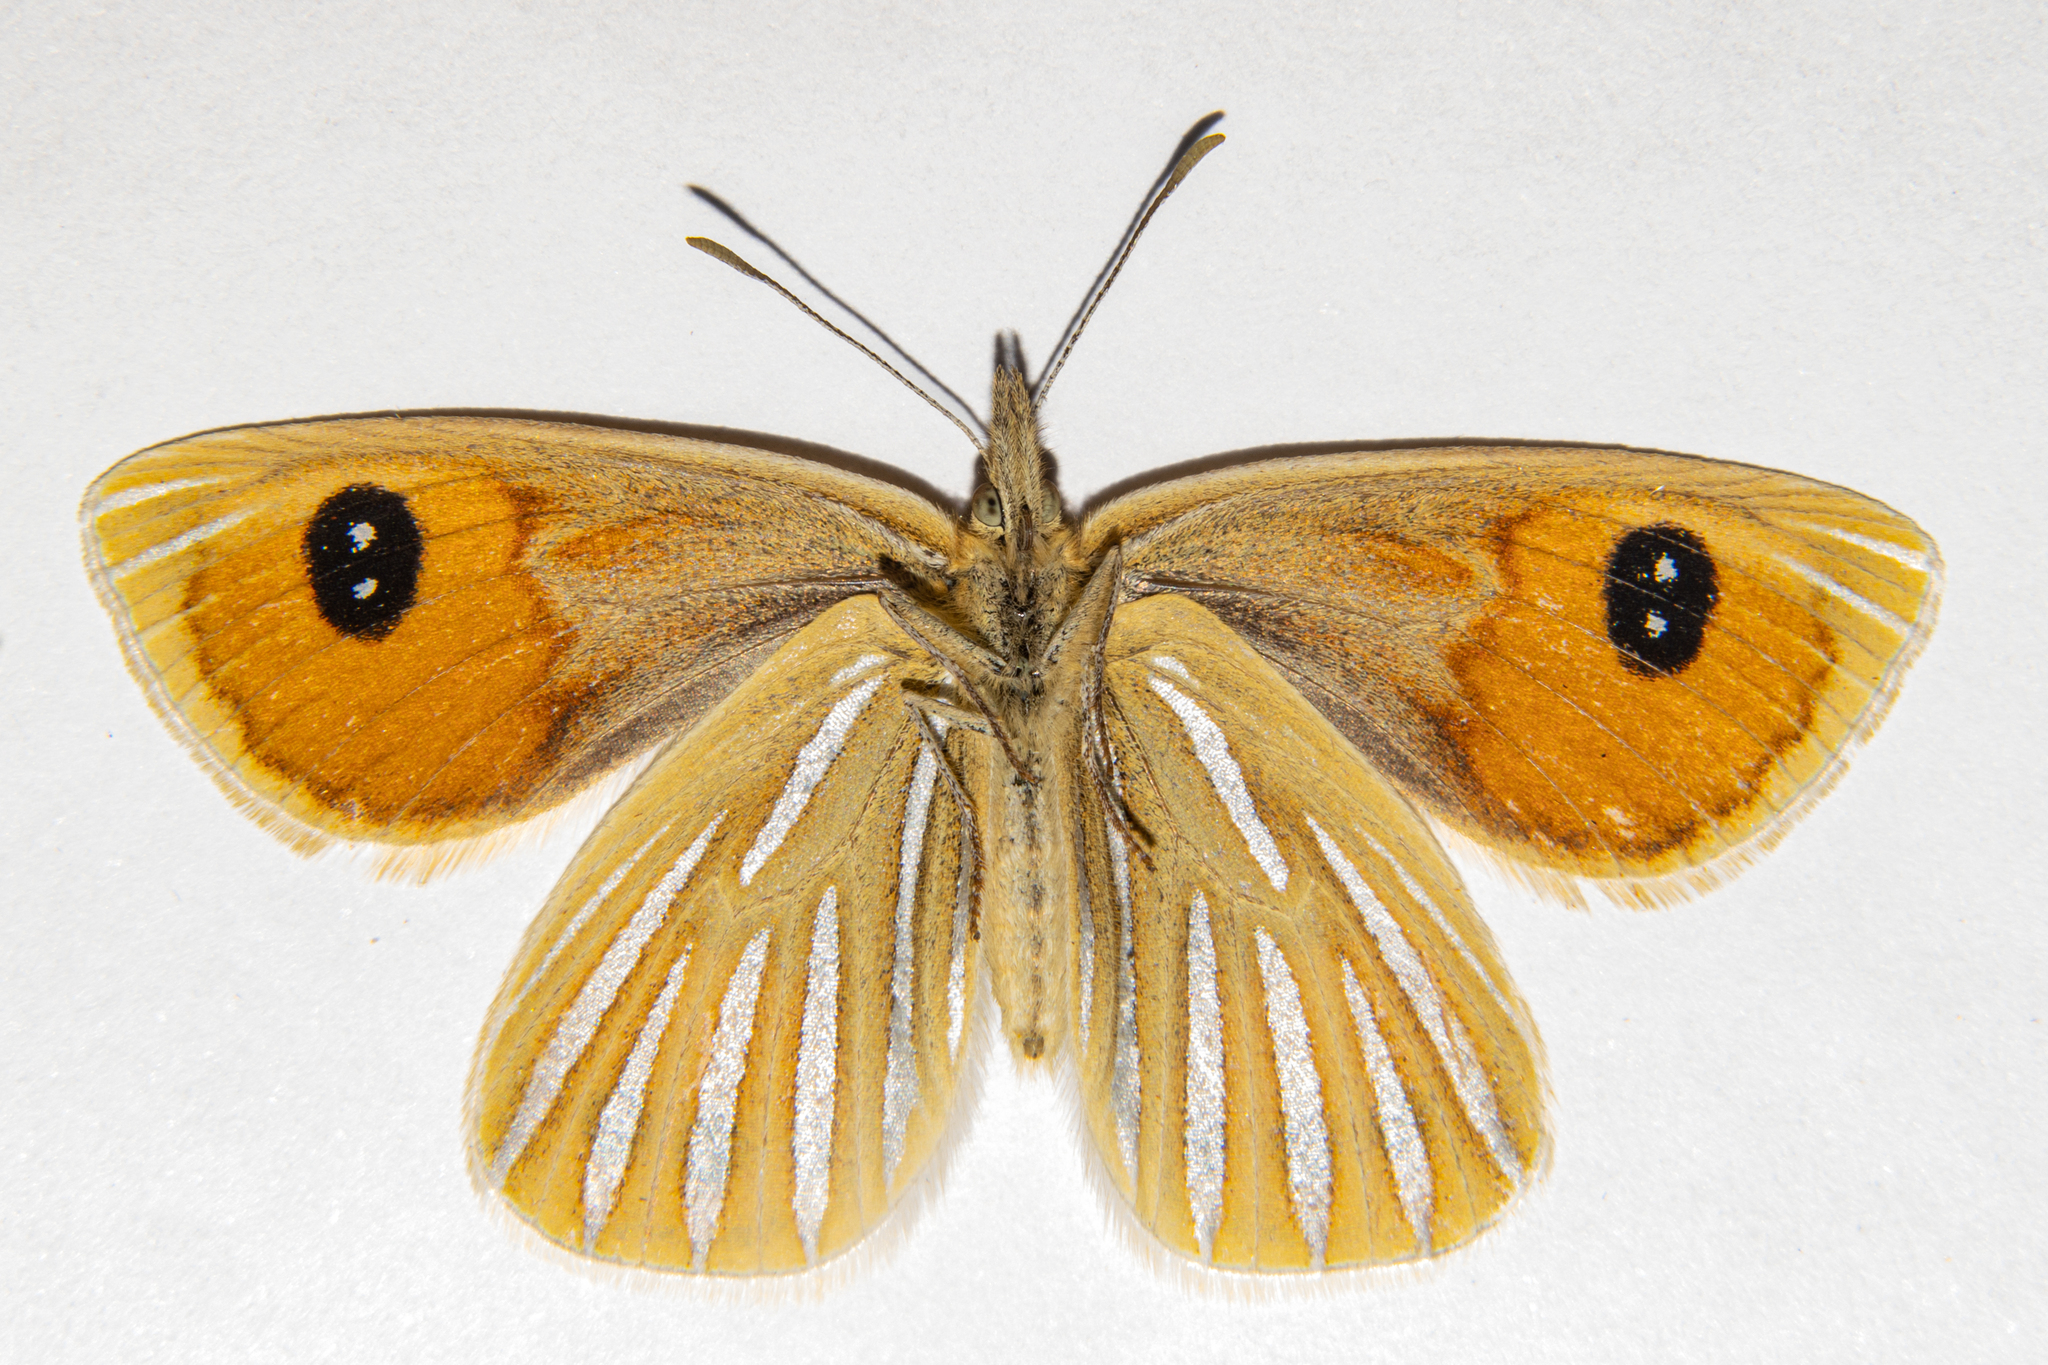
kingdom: Animalia
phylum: Arthropoda
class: Insecta
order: Lepidoptera
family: Nymphalidae
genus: Argyrophenga
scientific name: Argyrophenga antipodum
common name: Common tussock butterfly
